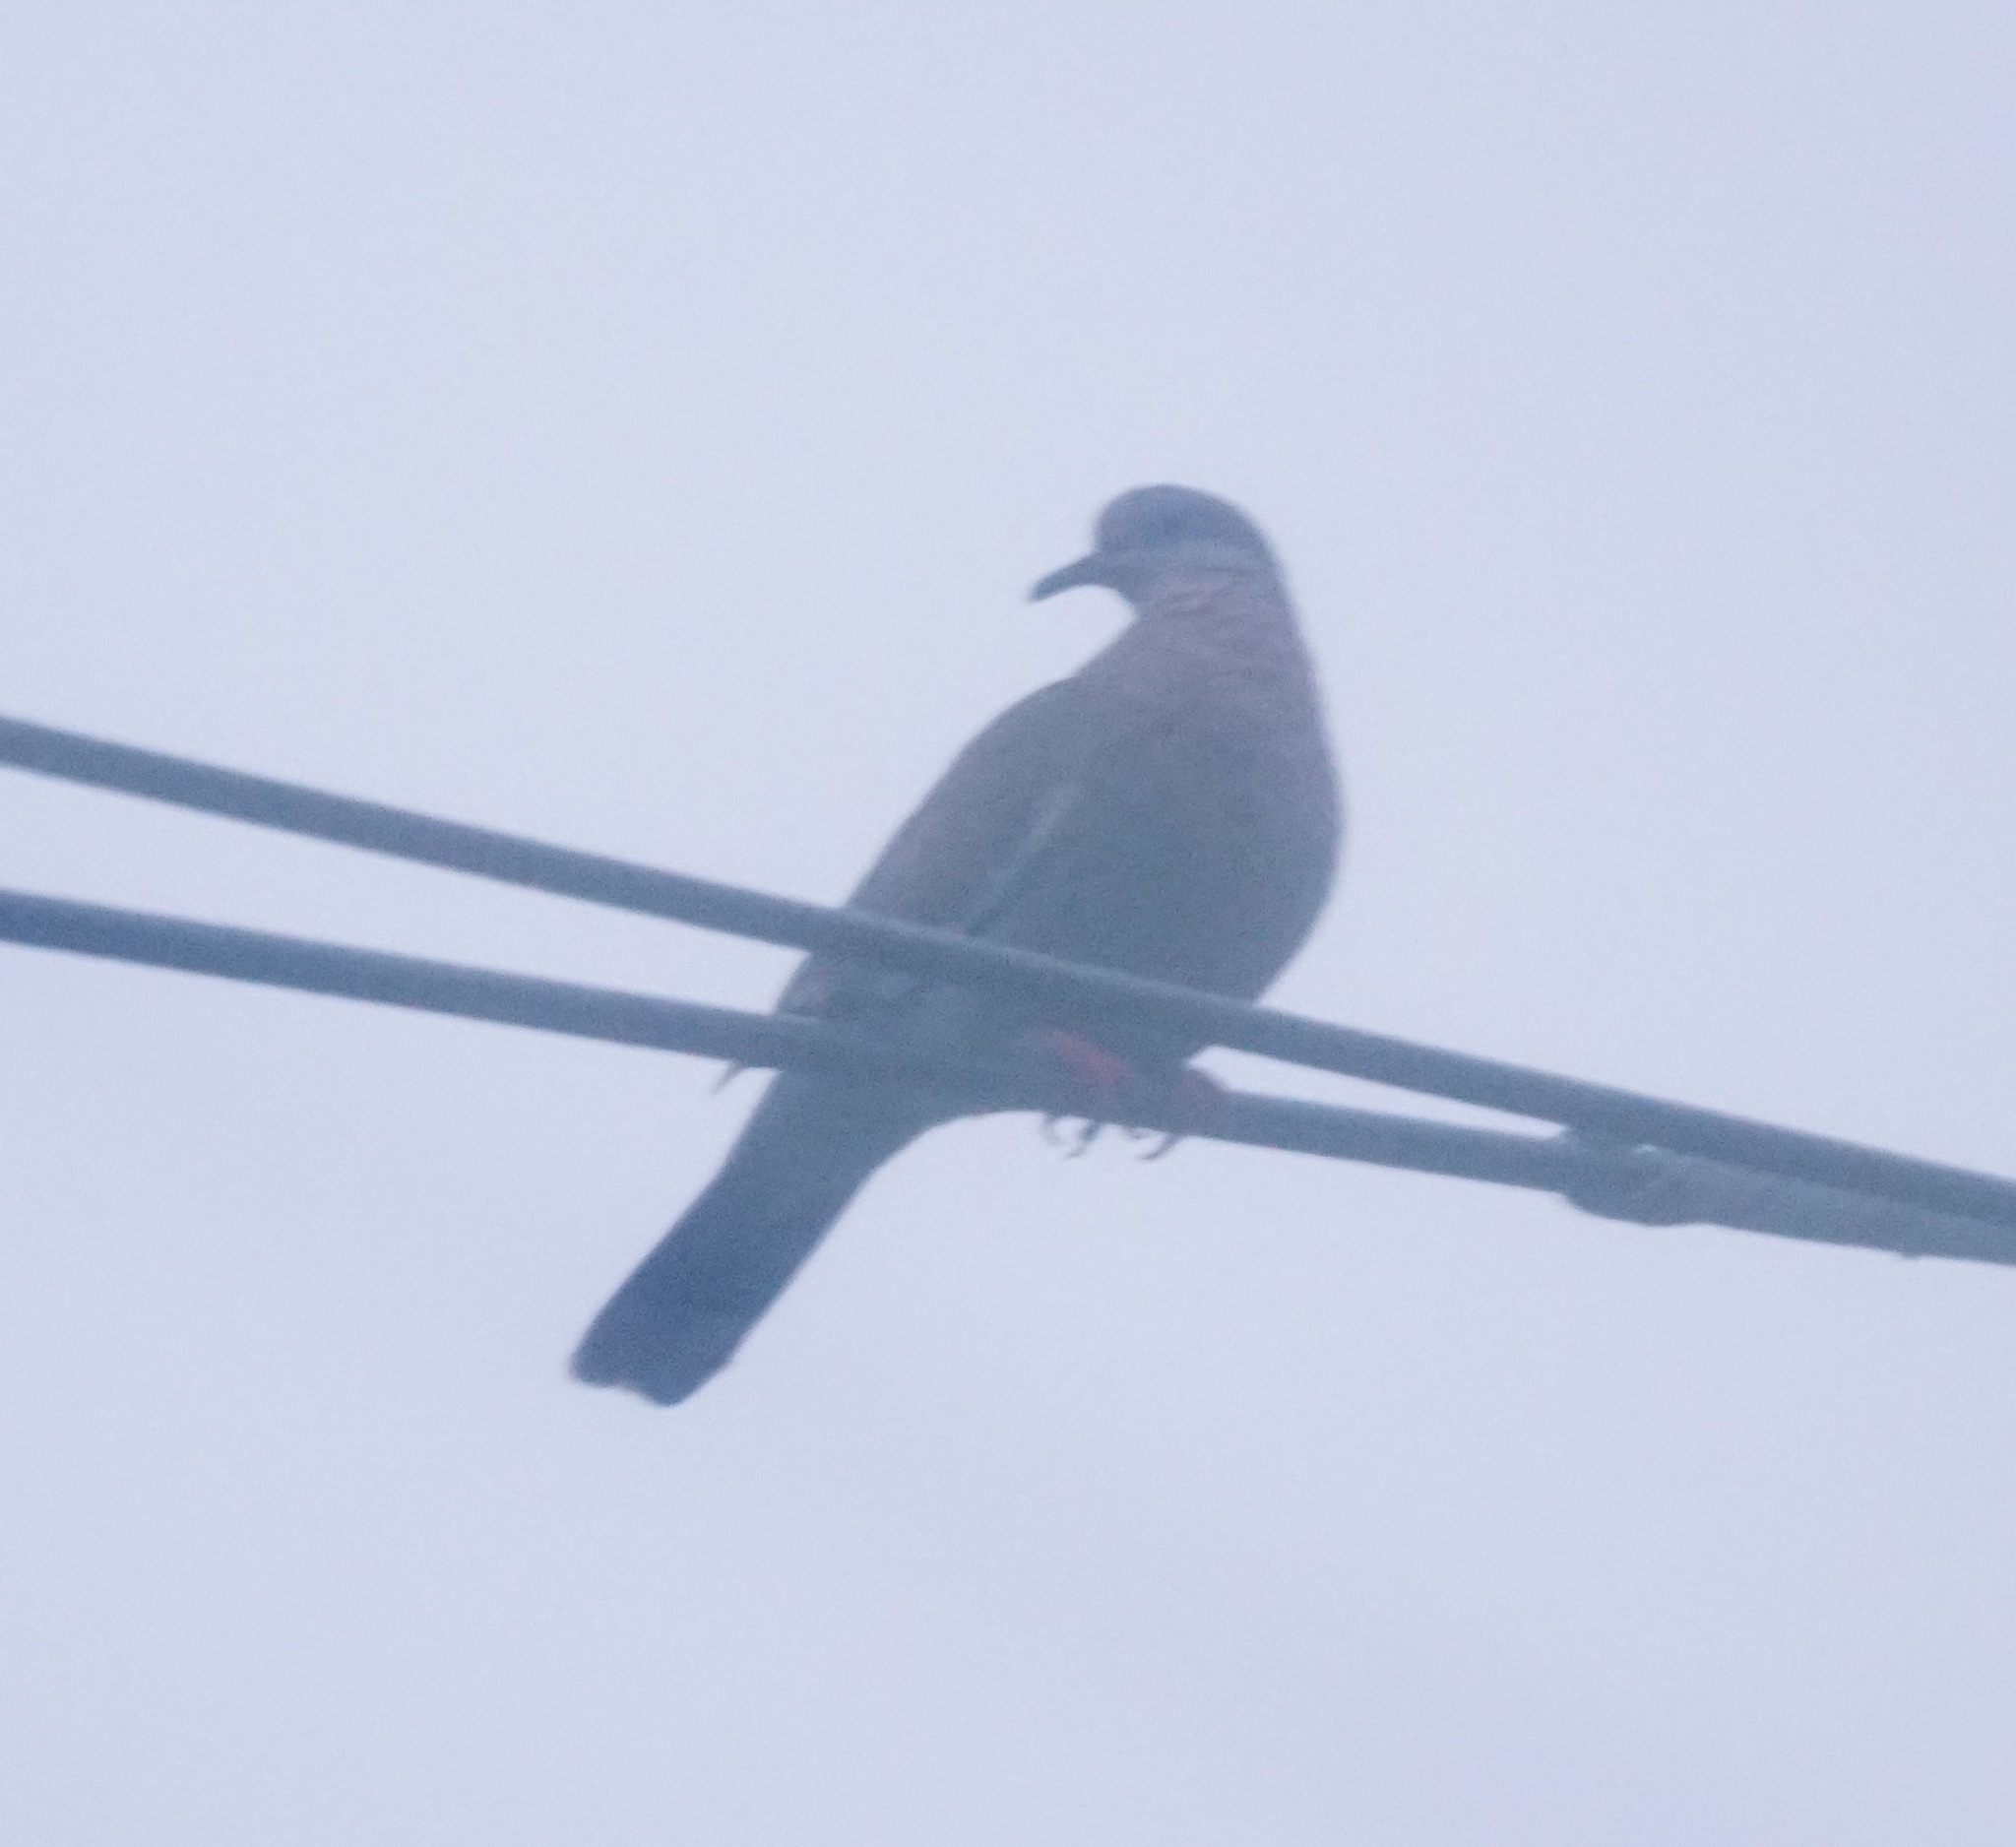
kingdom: Animalia
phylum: Chordata
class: Aves
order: Columbiformes
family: Columbidae
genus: Zenaida
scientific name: Zenaida meloda
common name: West peruvian dove
